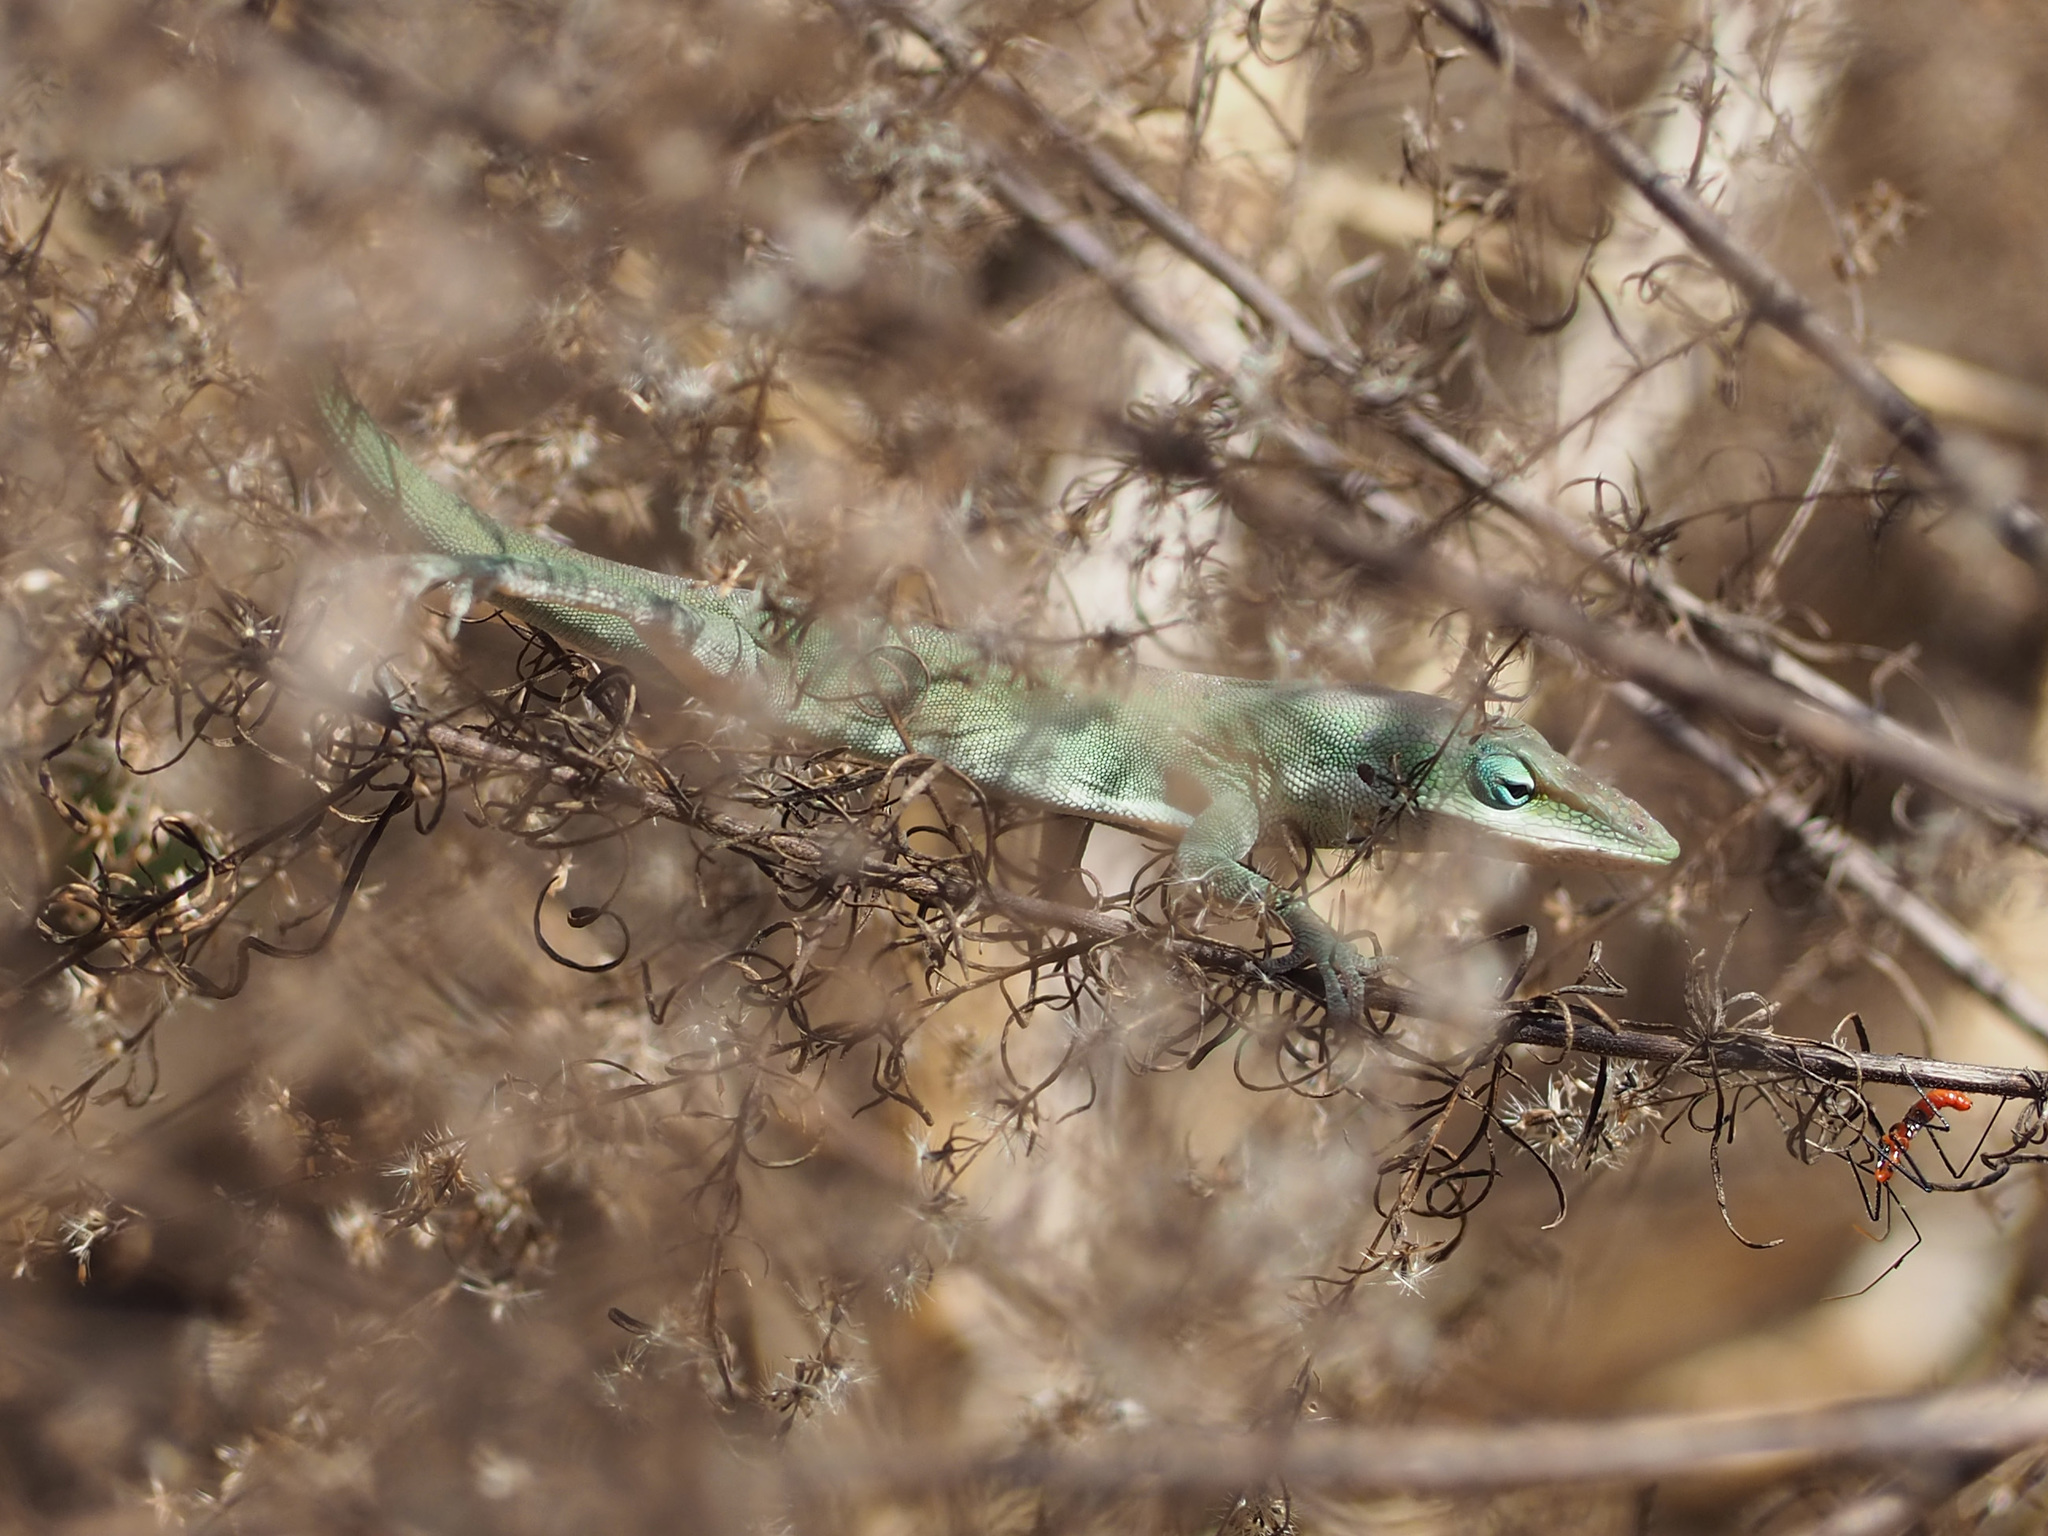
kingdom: Animalia
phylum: Chordata
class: Squamata
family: Dactyloidae
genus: Anolis
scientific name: Anolis carolinensis
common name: Green anole
